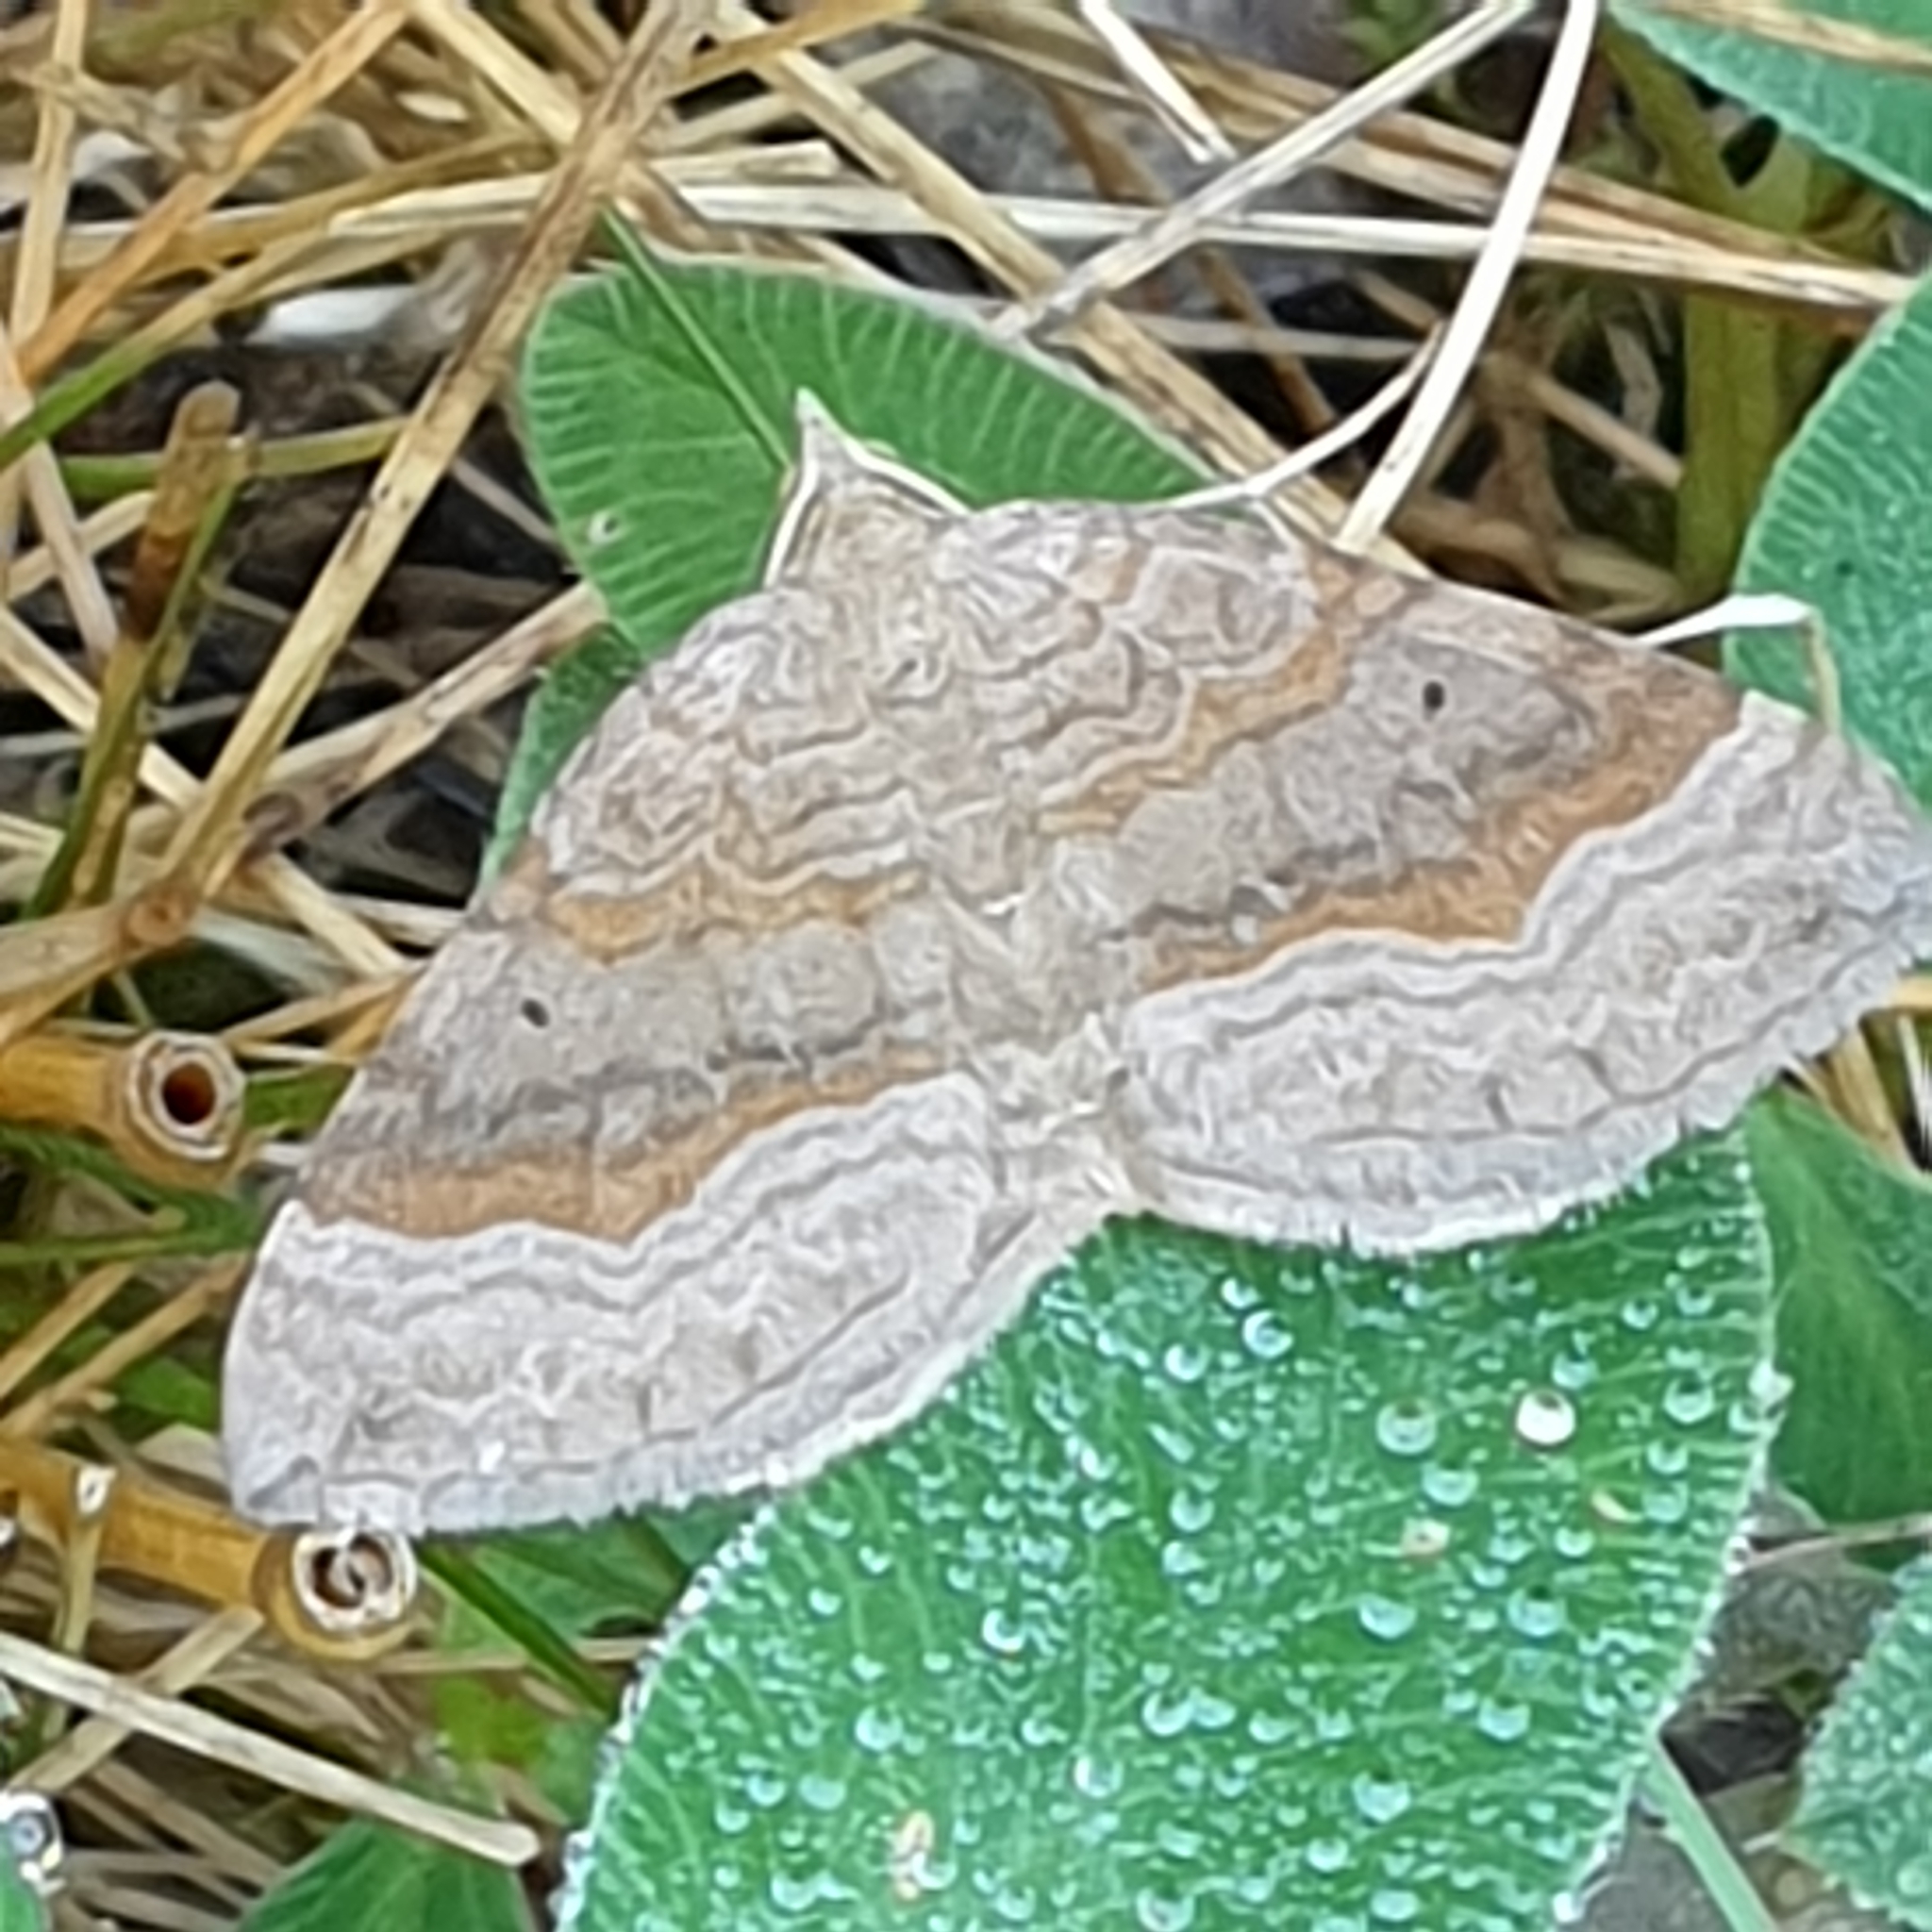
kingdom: Animalia
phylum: Arthropoda
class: Insecta
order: Lepidoptera
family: Geometridae
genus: Scotopteryx
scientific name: Scotopteryx chenopodiata
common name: Shaded broad-bar
